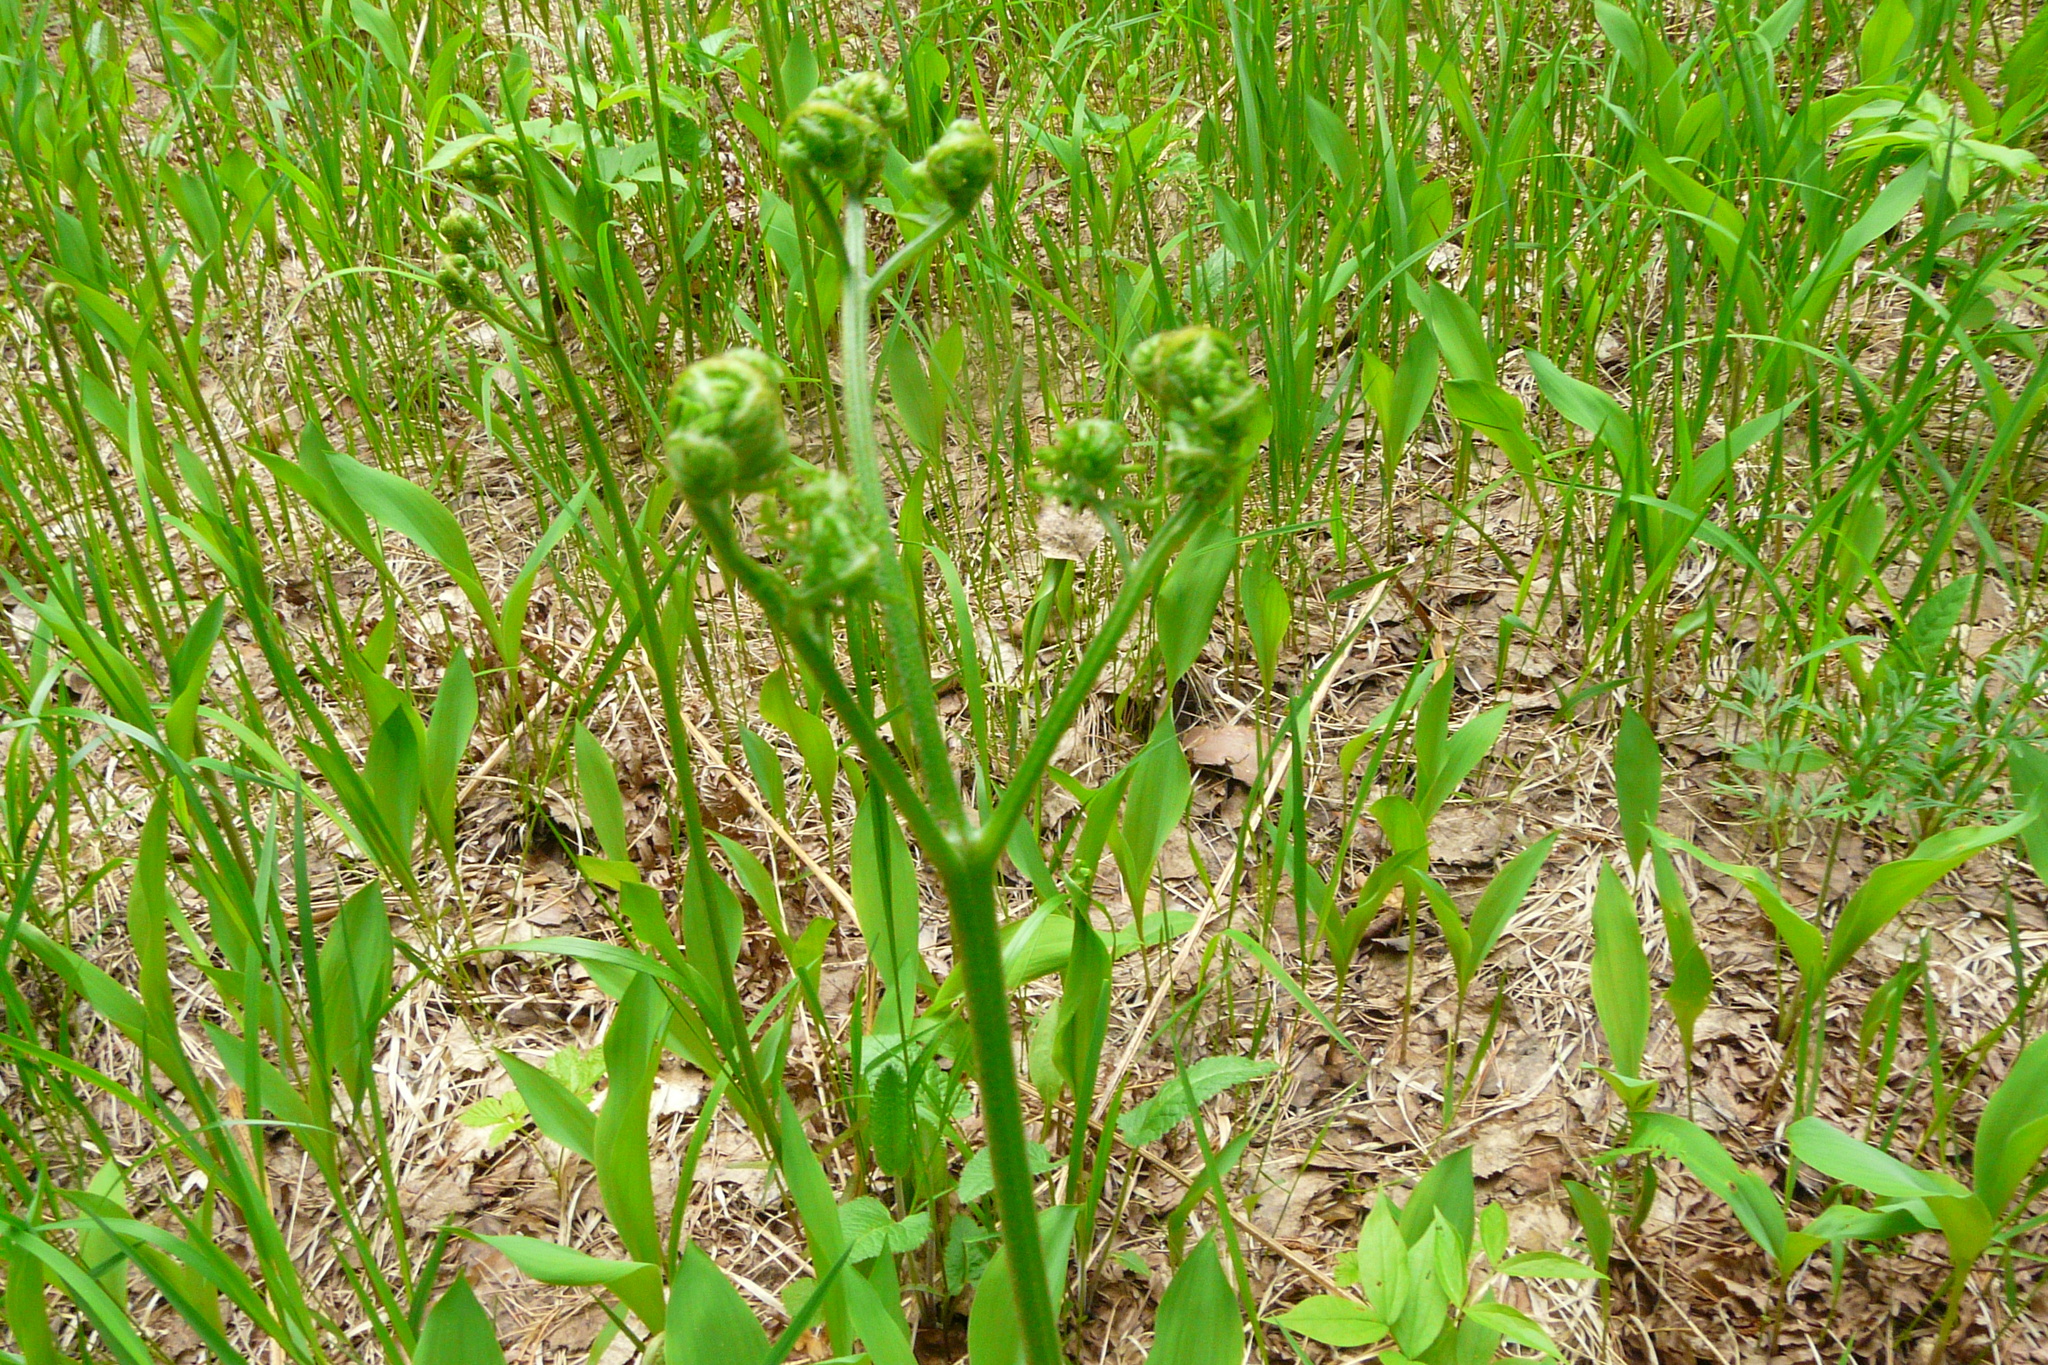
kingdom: Plantae
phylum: Tracheophyta
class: Polypodiopsida
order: Polypodiales
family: Dennstaedtiaceae
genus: Pteridium
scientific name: Pteridium aquilinum
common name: Bracken
